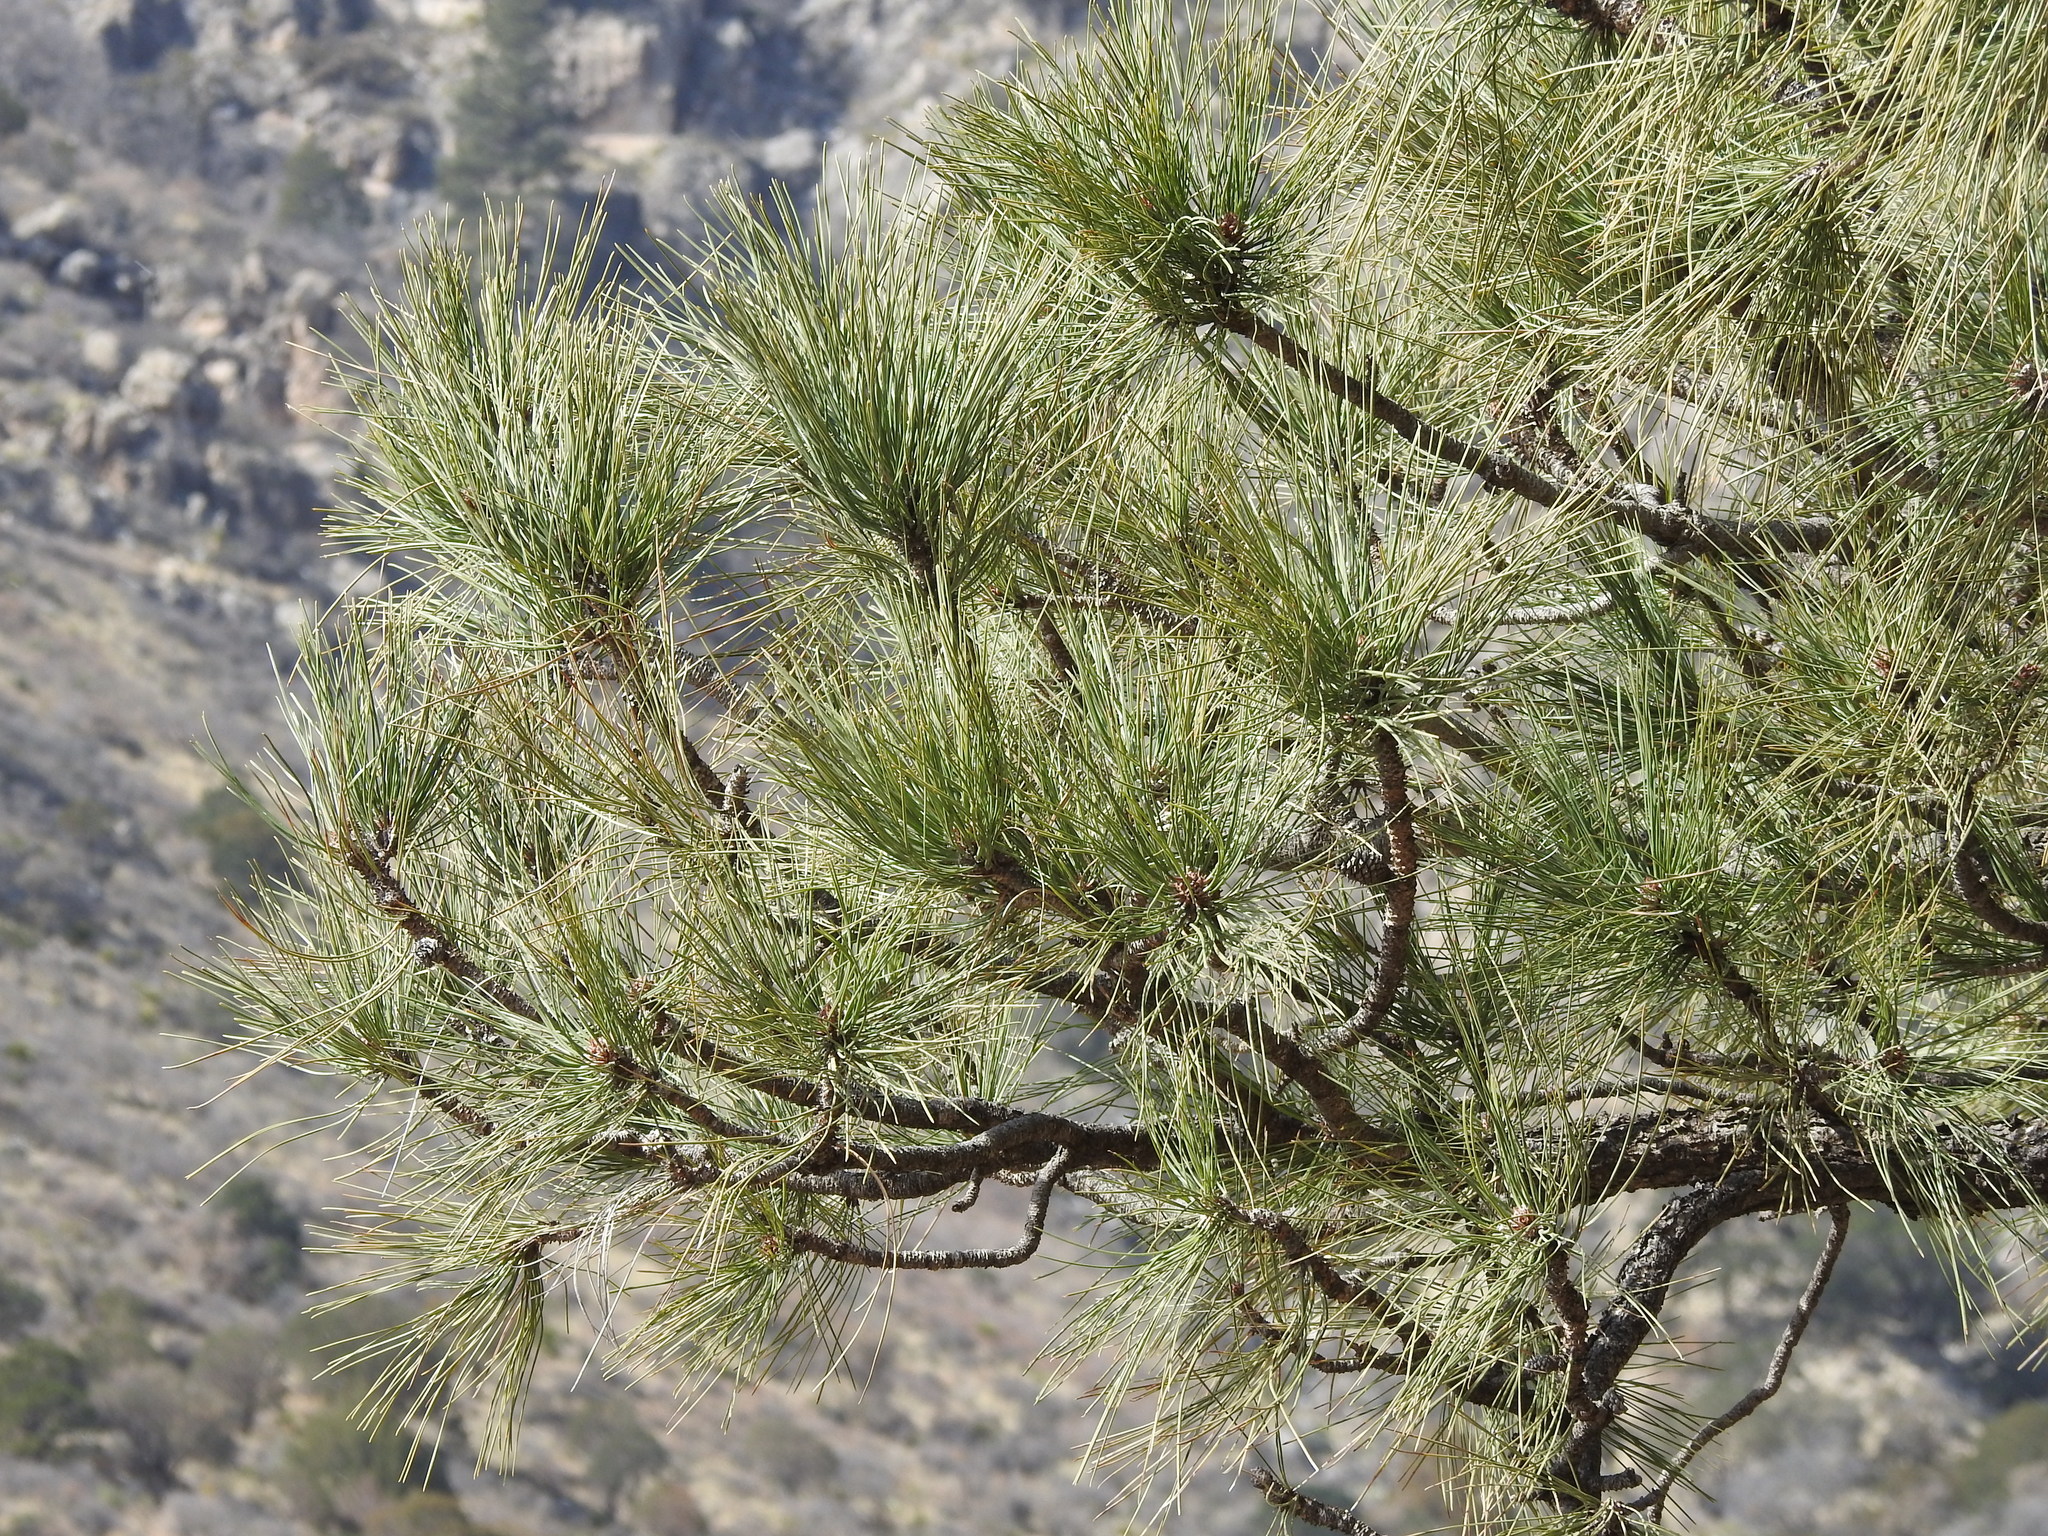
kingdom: Plantae
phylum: Tracheophyta
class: Pinopsida
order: Pinales
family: Pinaceae
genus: Pinus
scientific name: Pinus ponderosa
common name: Western yellow-pine
